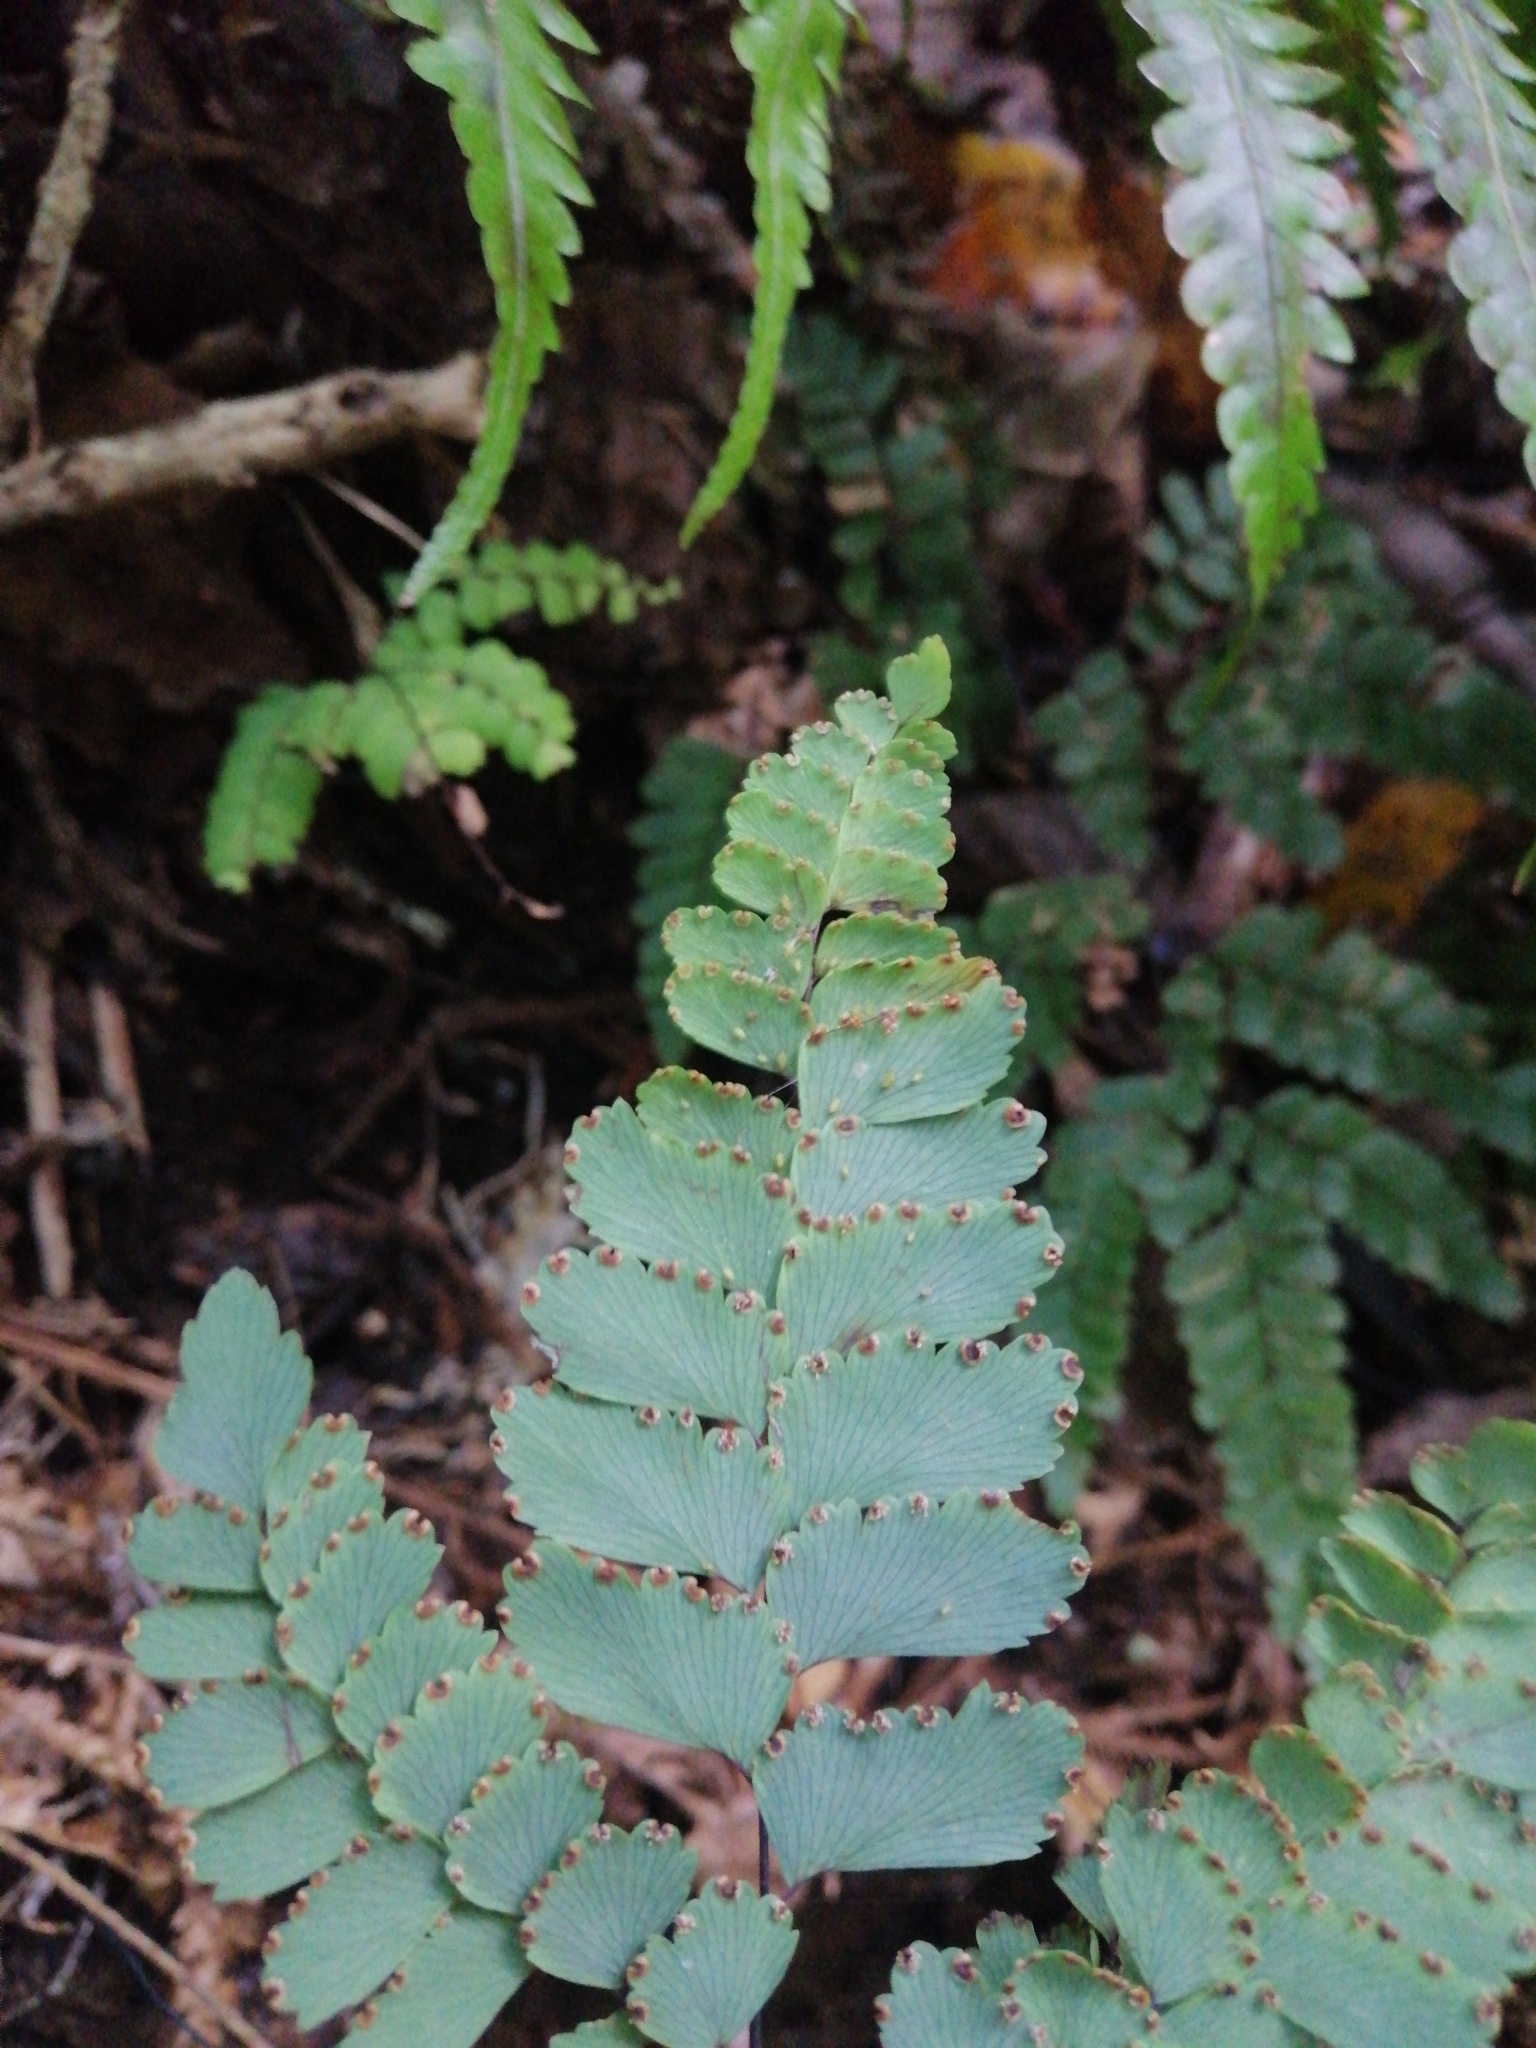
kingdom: Plantae
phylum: Tracheophyta
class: Polypodiopsida
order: Polypodiales
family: Pteridaceae
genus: Adiantum
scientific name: Adiantum cunninghamii
